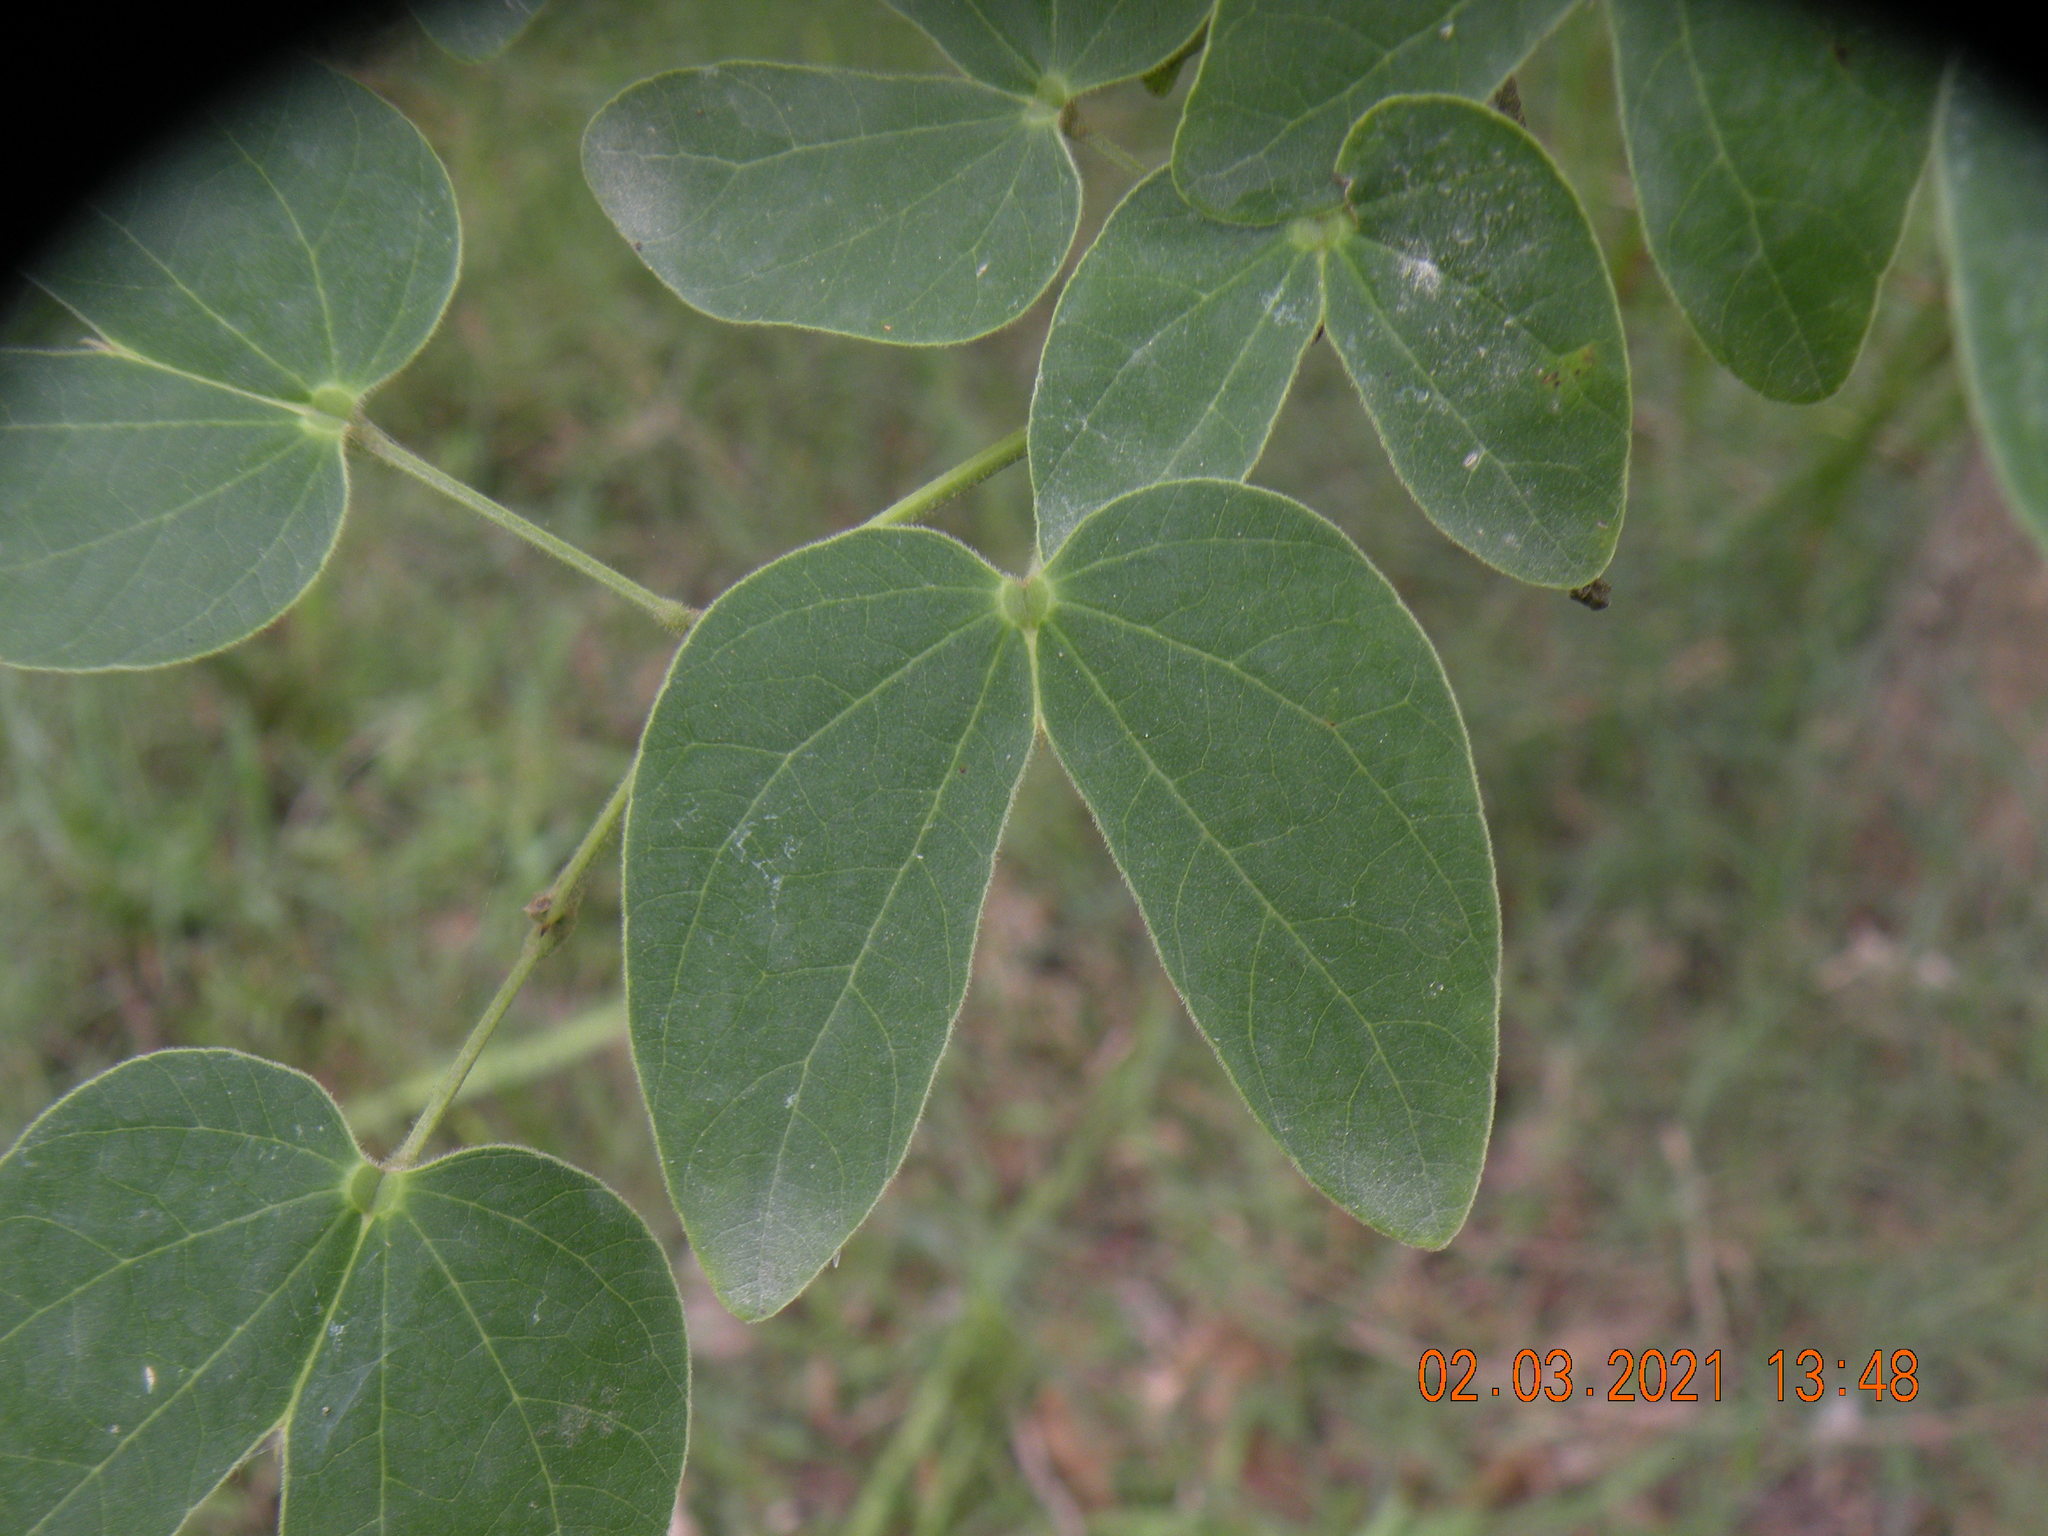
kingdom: Plantae
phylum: Tracheophyta
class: Magnoliopsida
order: Fabales
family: Fabaceae
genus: Bauhinia
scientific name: Bauhinia forficata
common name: Orchid tree
